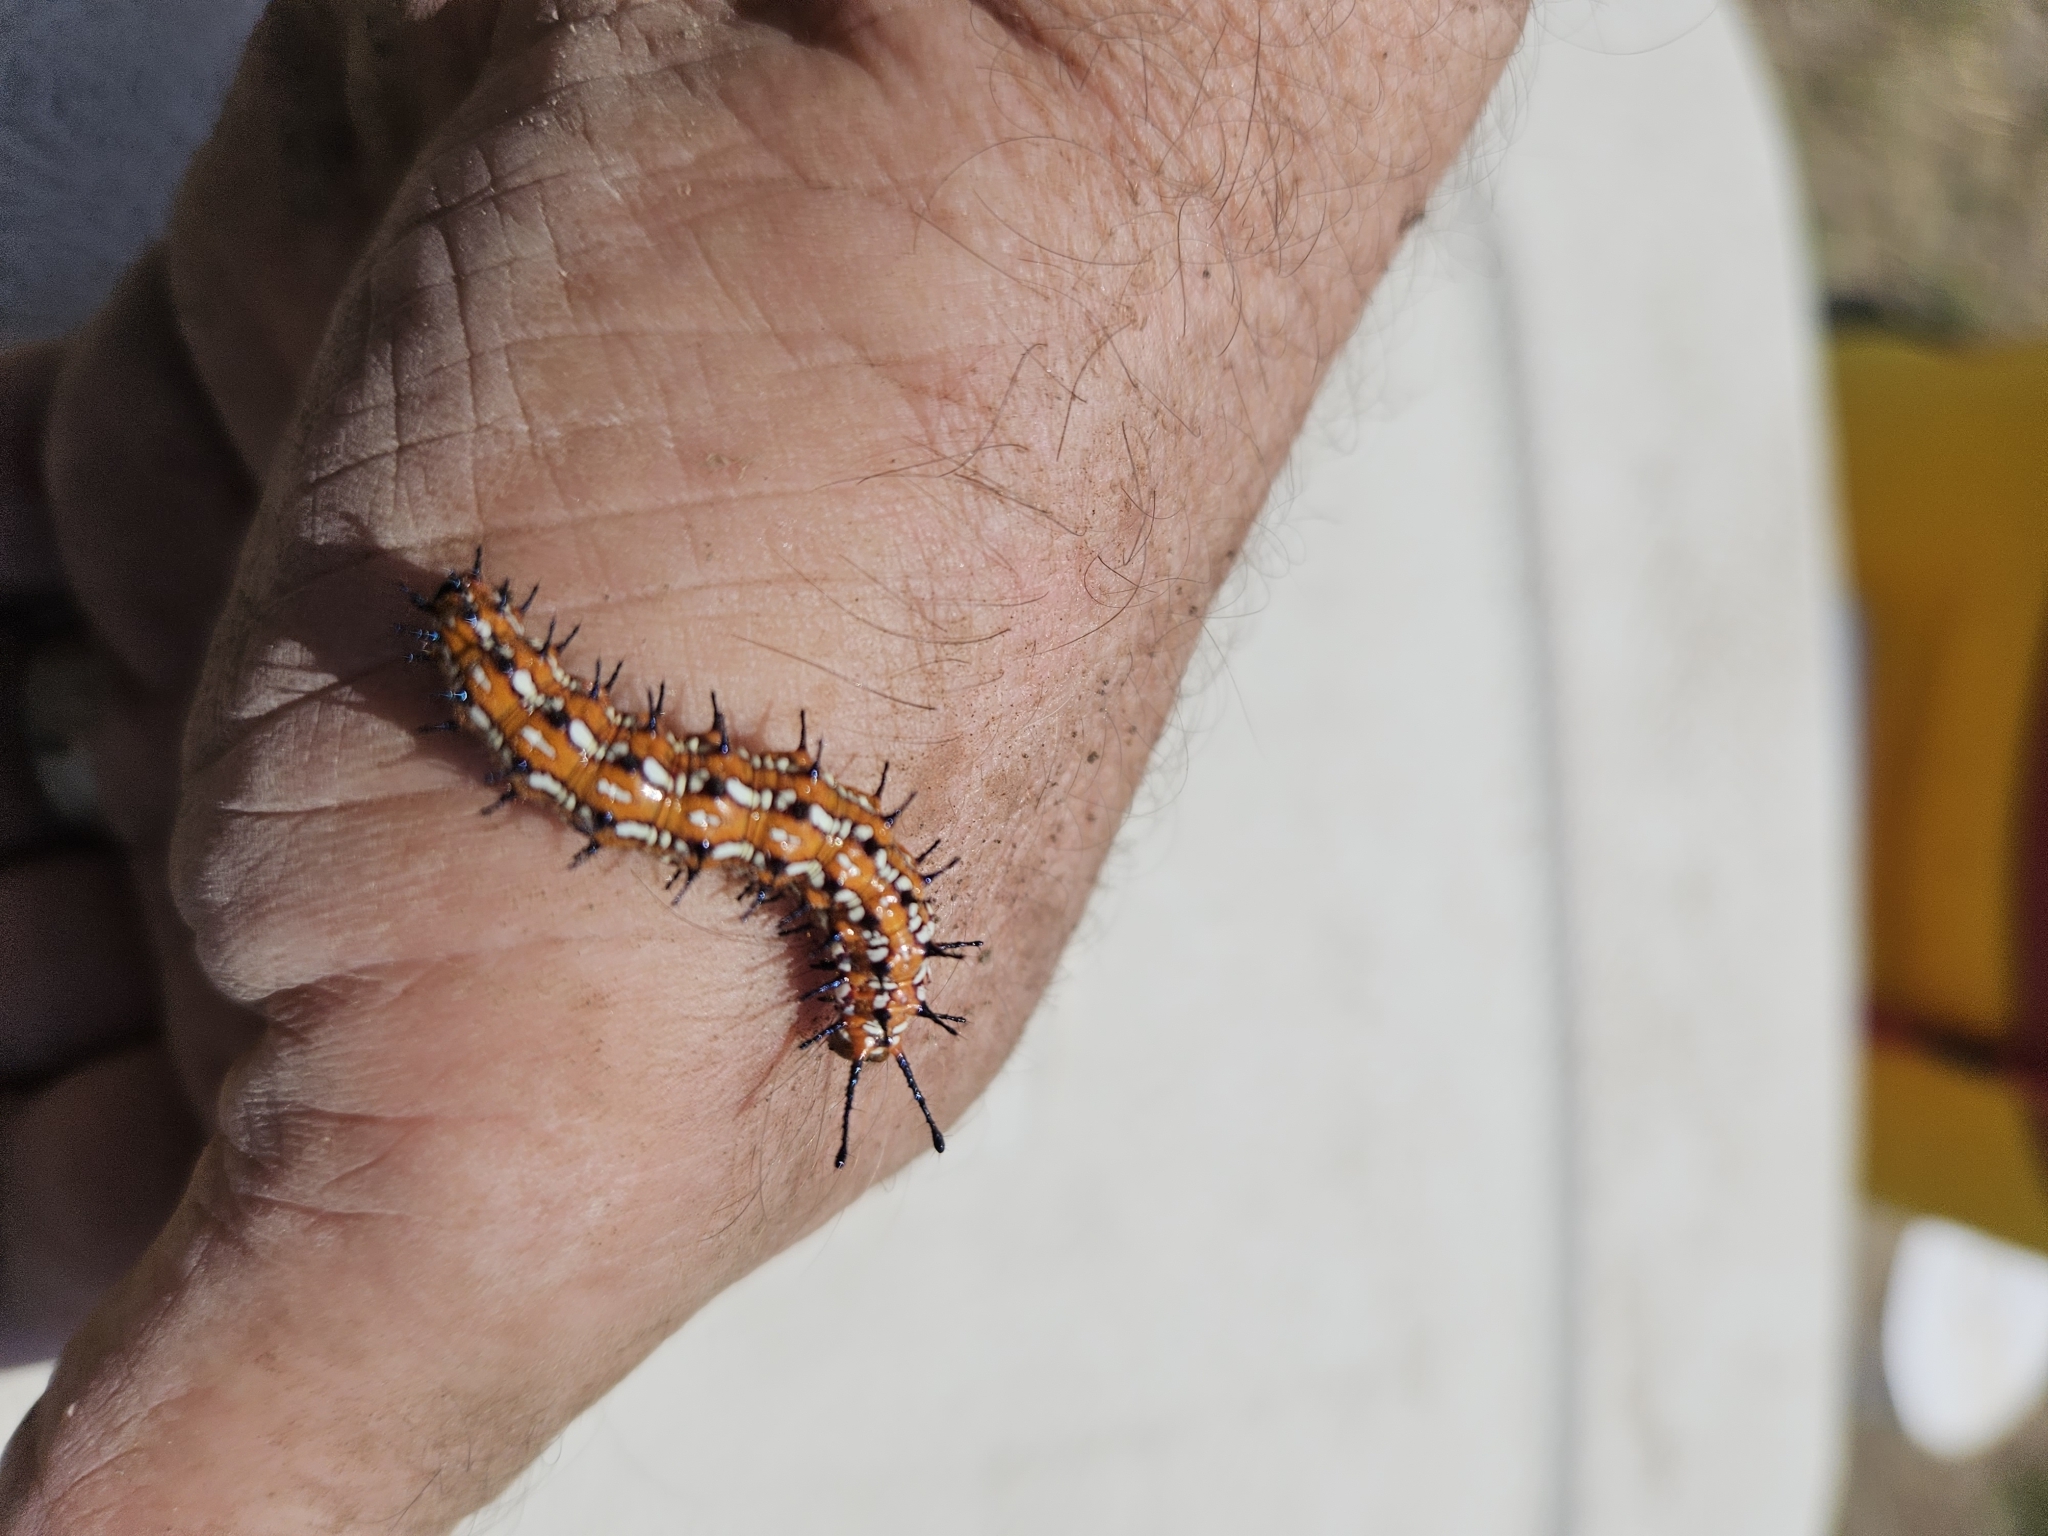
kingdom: Animalia
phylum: Arthropoda
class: Insecta
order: Lepidoptera
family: Nymphalidae
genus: Euptoieta
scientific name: Euptoieta claudia
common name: Variegated fritillary
